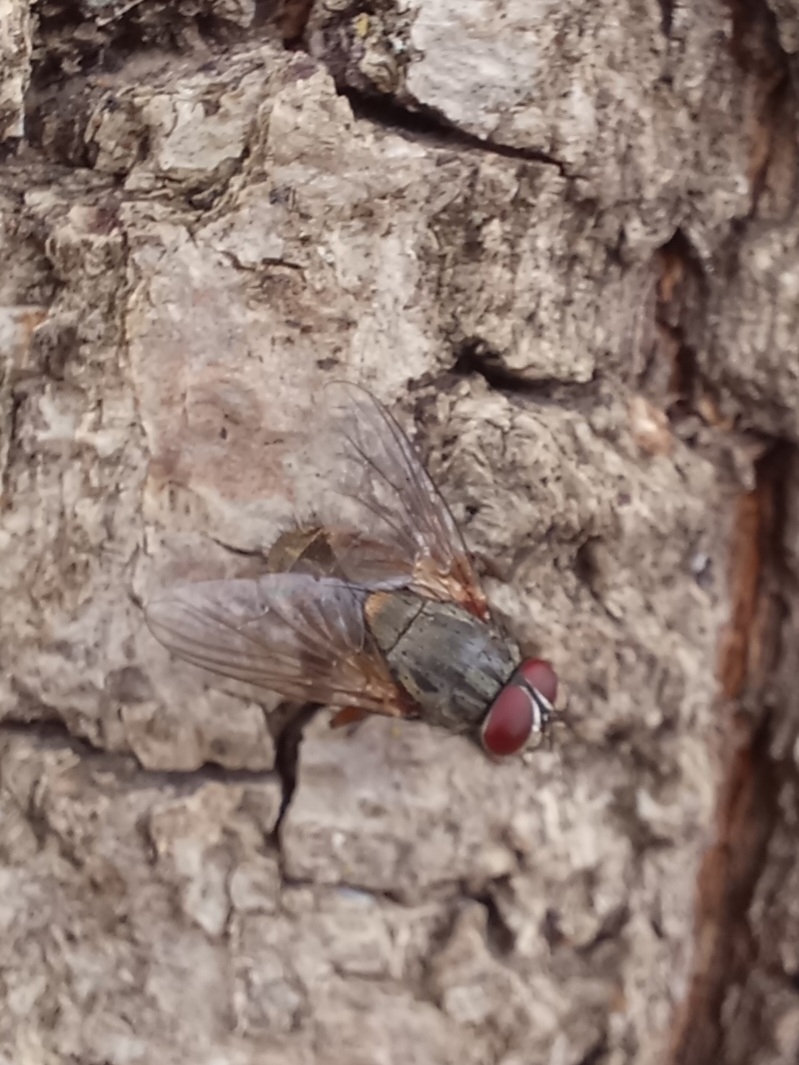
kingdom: Animalia
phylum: Arthropoda
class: Insecta
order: Diptera
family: Muscidae
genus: Muscina
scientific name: Muscina stabulans
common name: False stable fly
